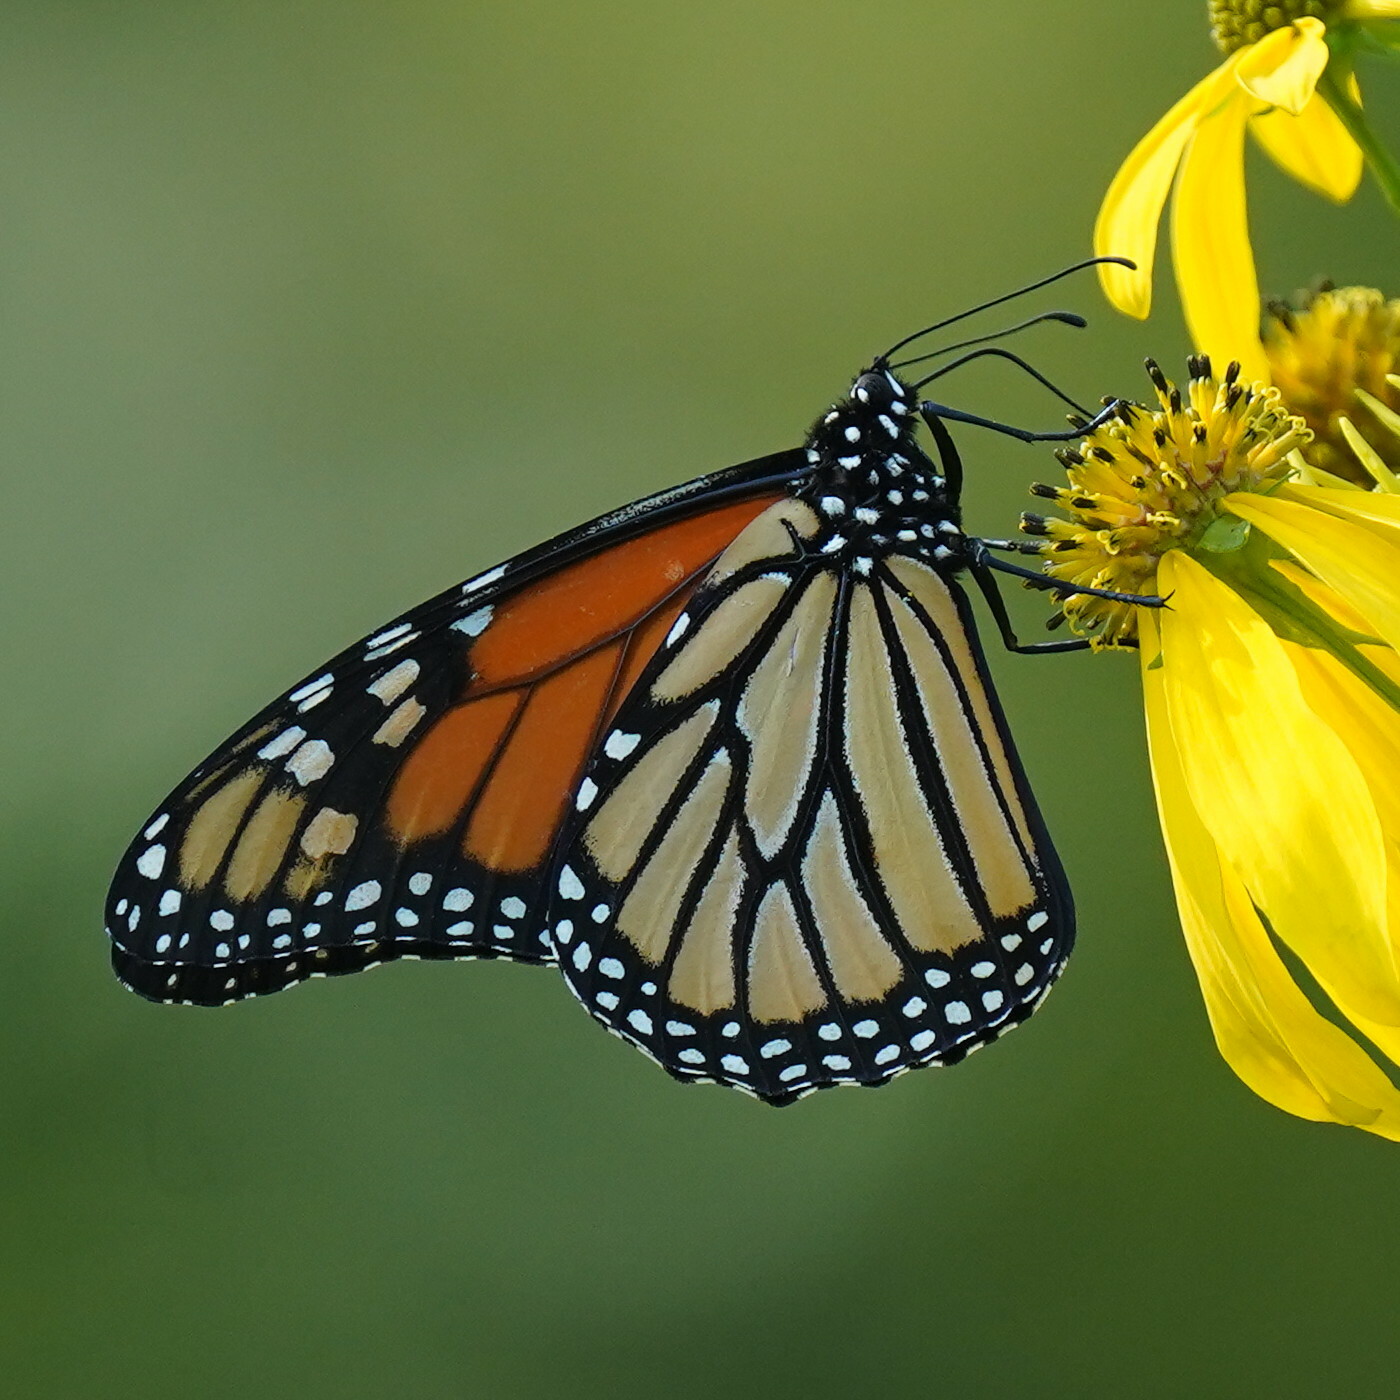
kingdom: Animalia
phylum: Arthropoda
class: Insecta
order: Lepidoptera
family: Nymphalidae
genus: Danaus
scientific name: Danaus plexippus
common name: Monarch
